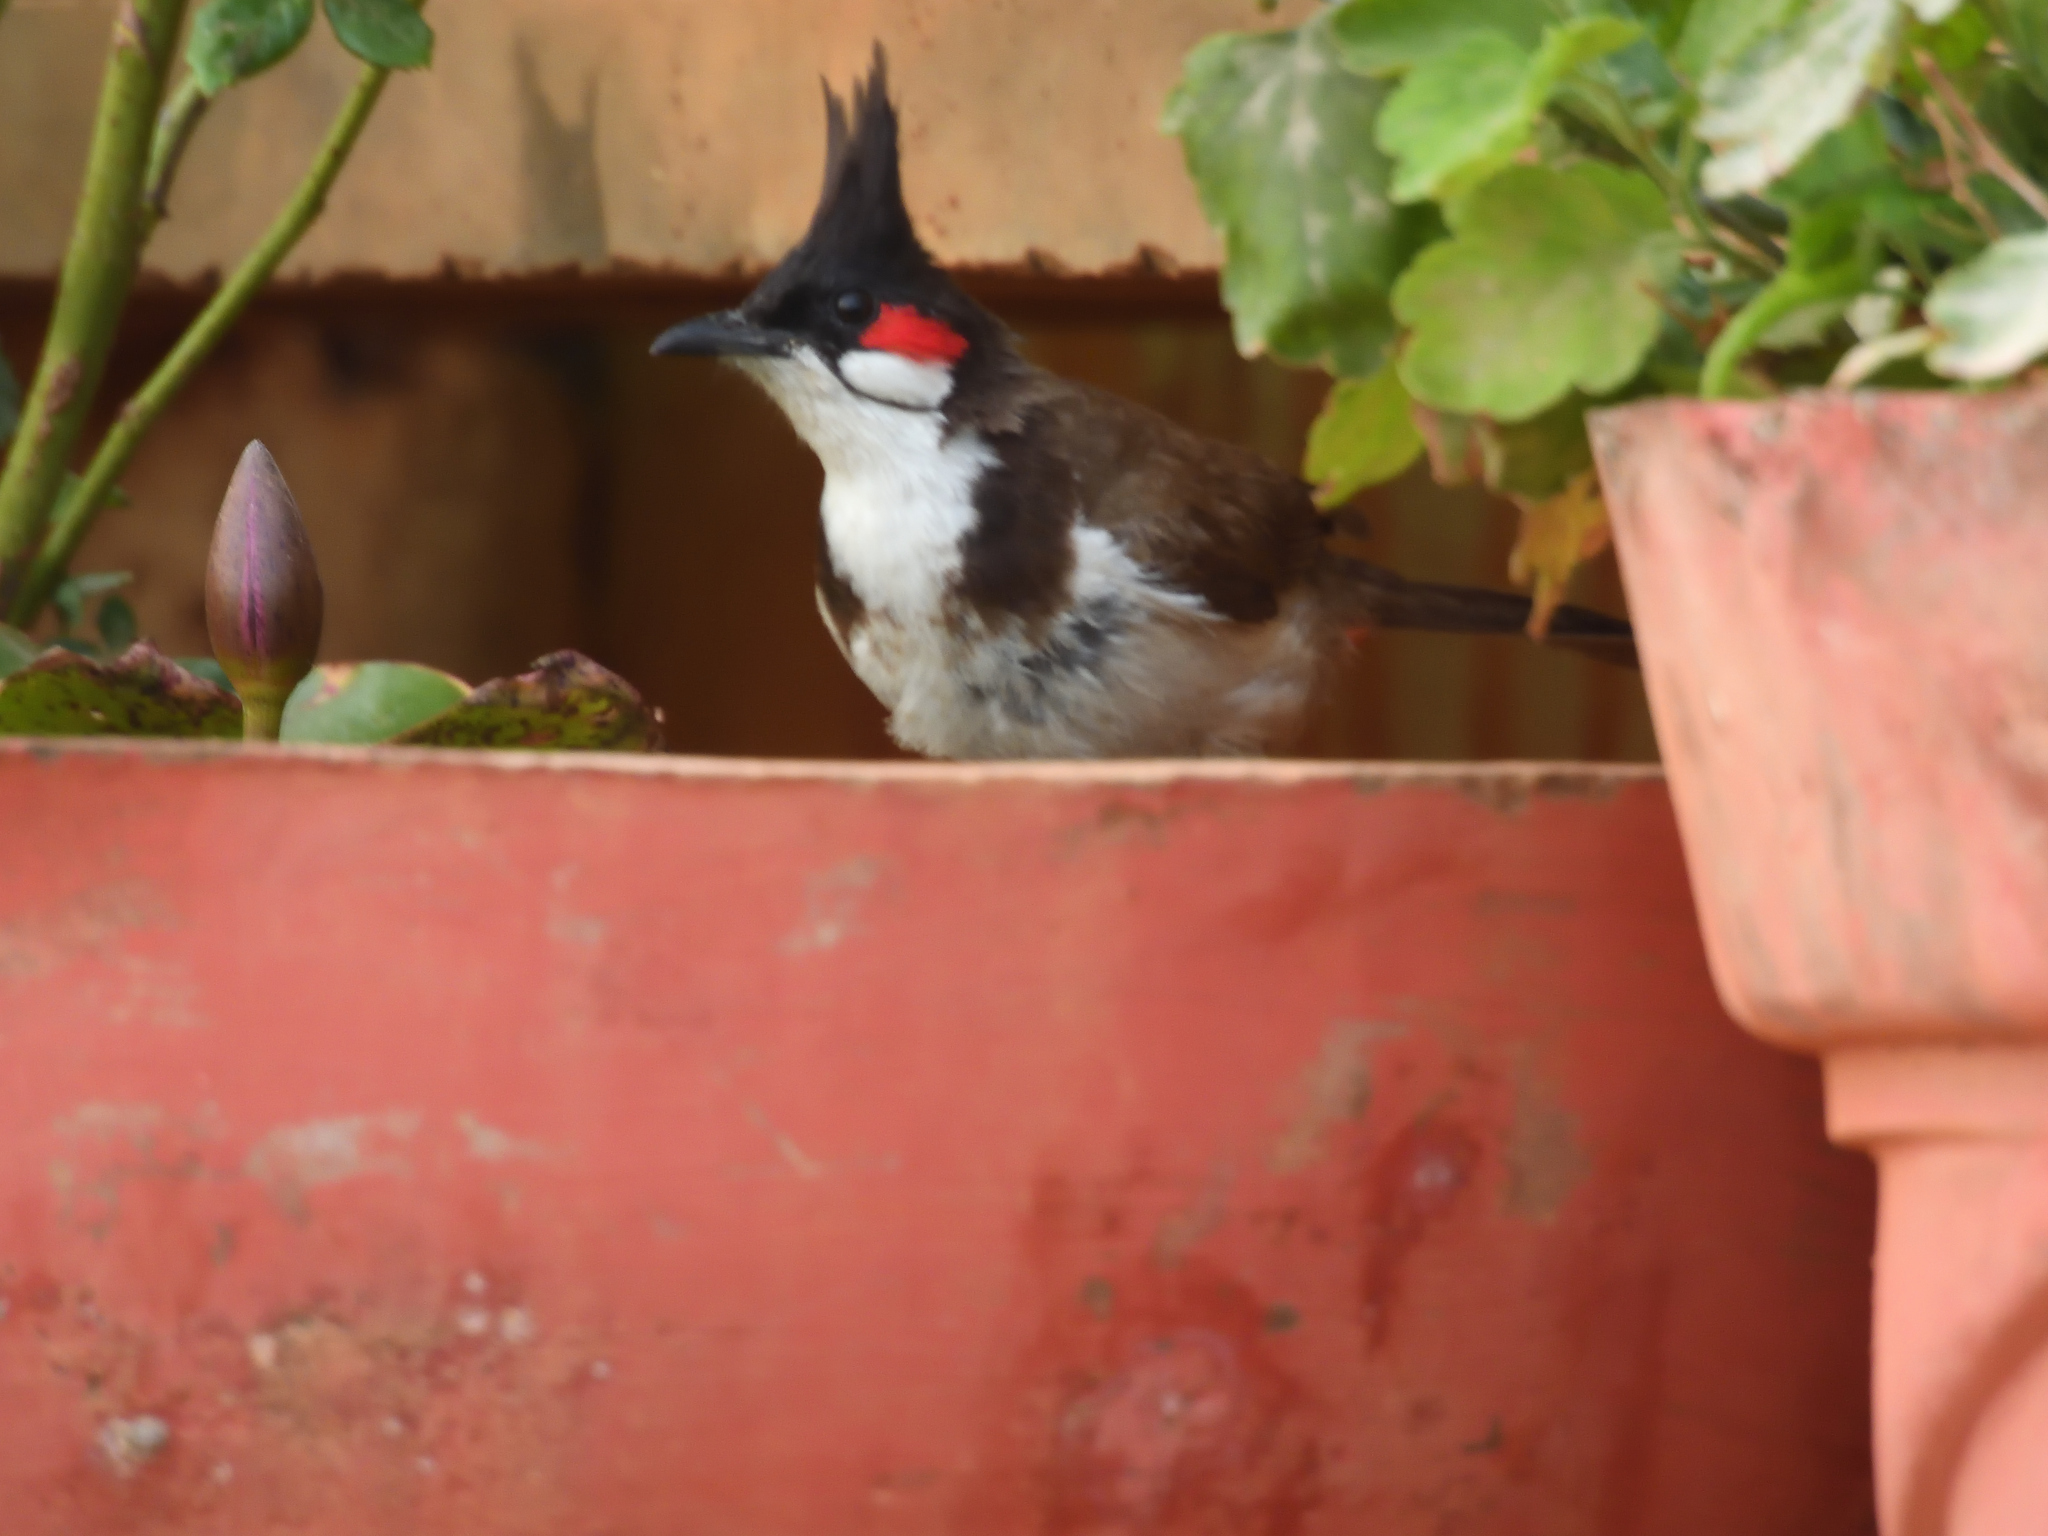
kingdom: Animalia
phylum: Chordata
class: Aves
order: Passeriformes
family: Pycnonotidae
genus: Pycnonotus
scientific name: Pycnonotus jocosus
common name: Red-whiskered bulbul
